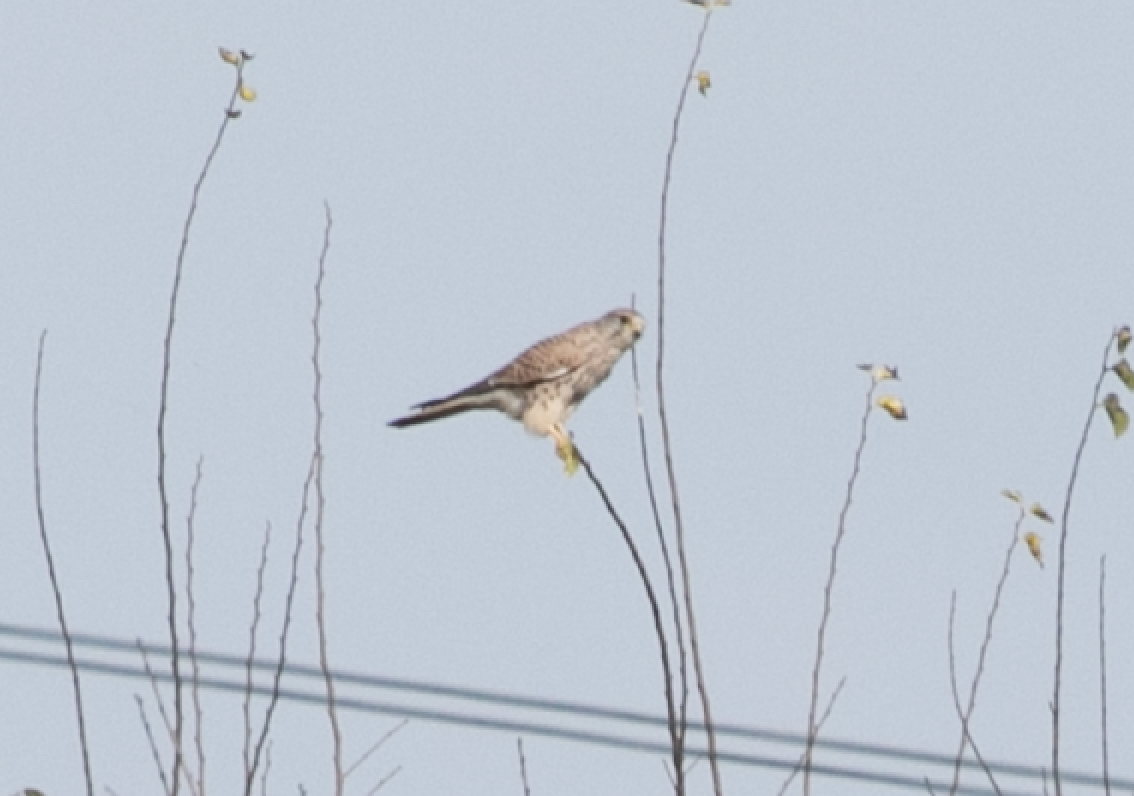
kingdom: Animalia
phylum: Chordata
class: Aves
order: Falconiformes
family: Falconidae
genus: Falco
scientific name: Falco tinnunculus
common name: Common kestrel
